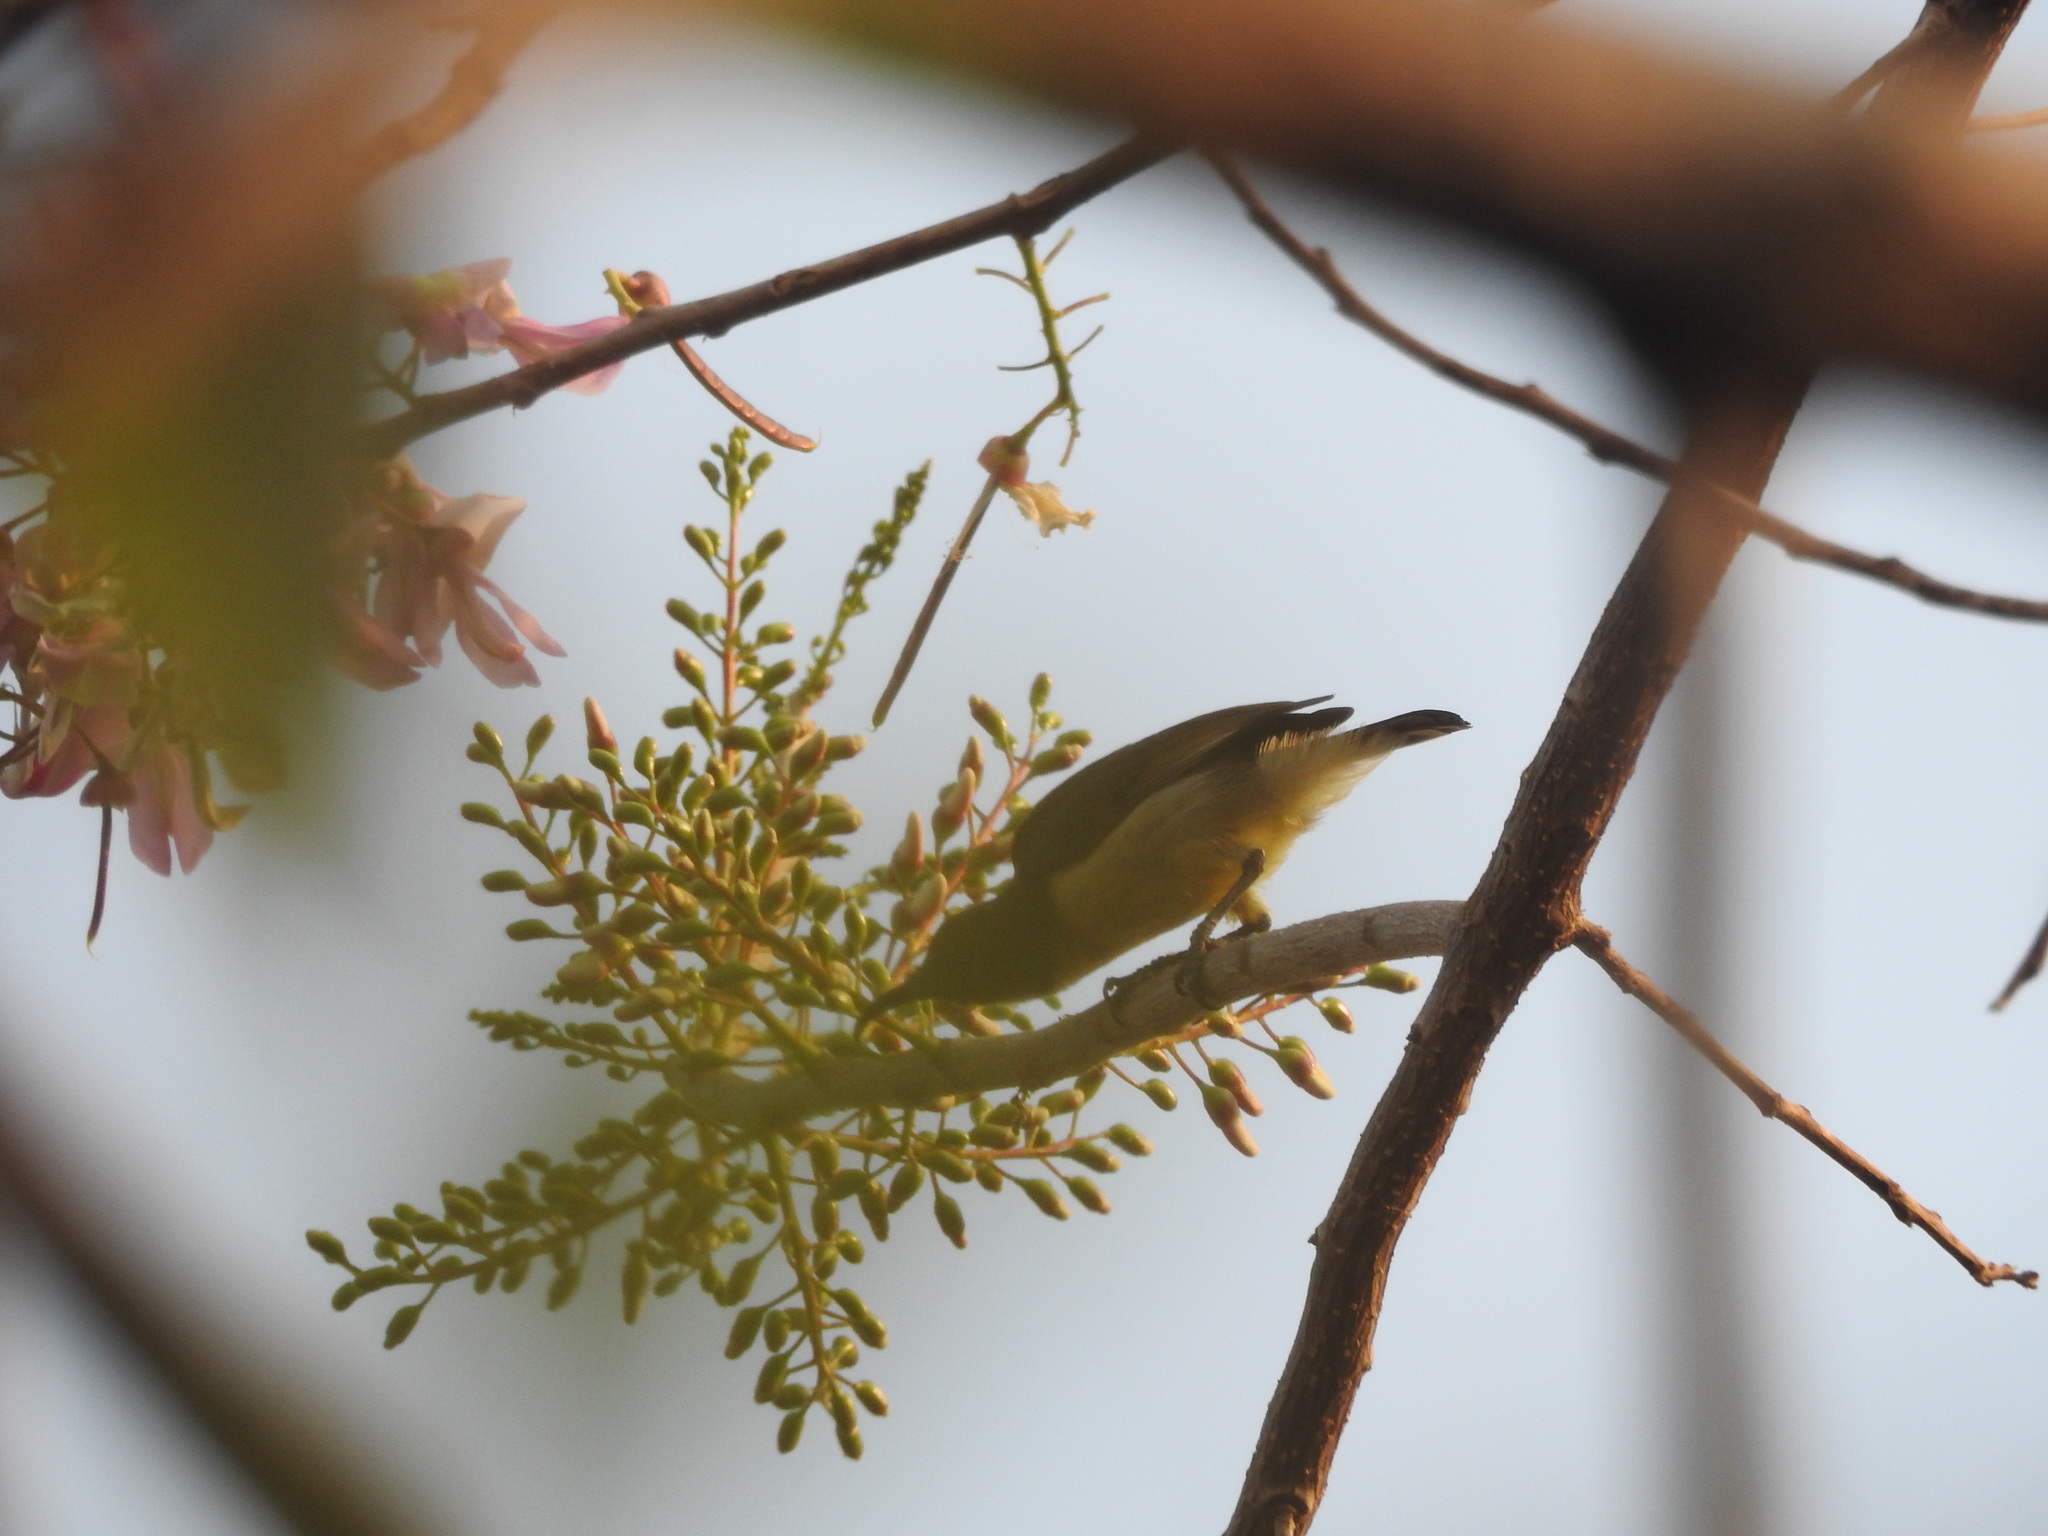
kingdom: Animalia
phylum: Chordata
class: Aves
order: Passeriformes
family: Nectariniidae
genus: Cinnyris
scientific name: Cinnyris lotenius
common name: Loten's sunbird
